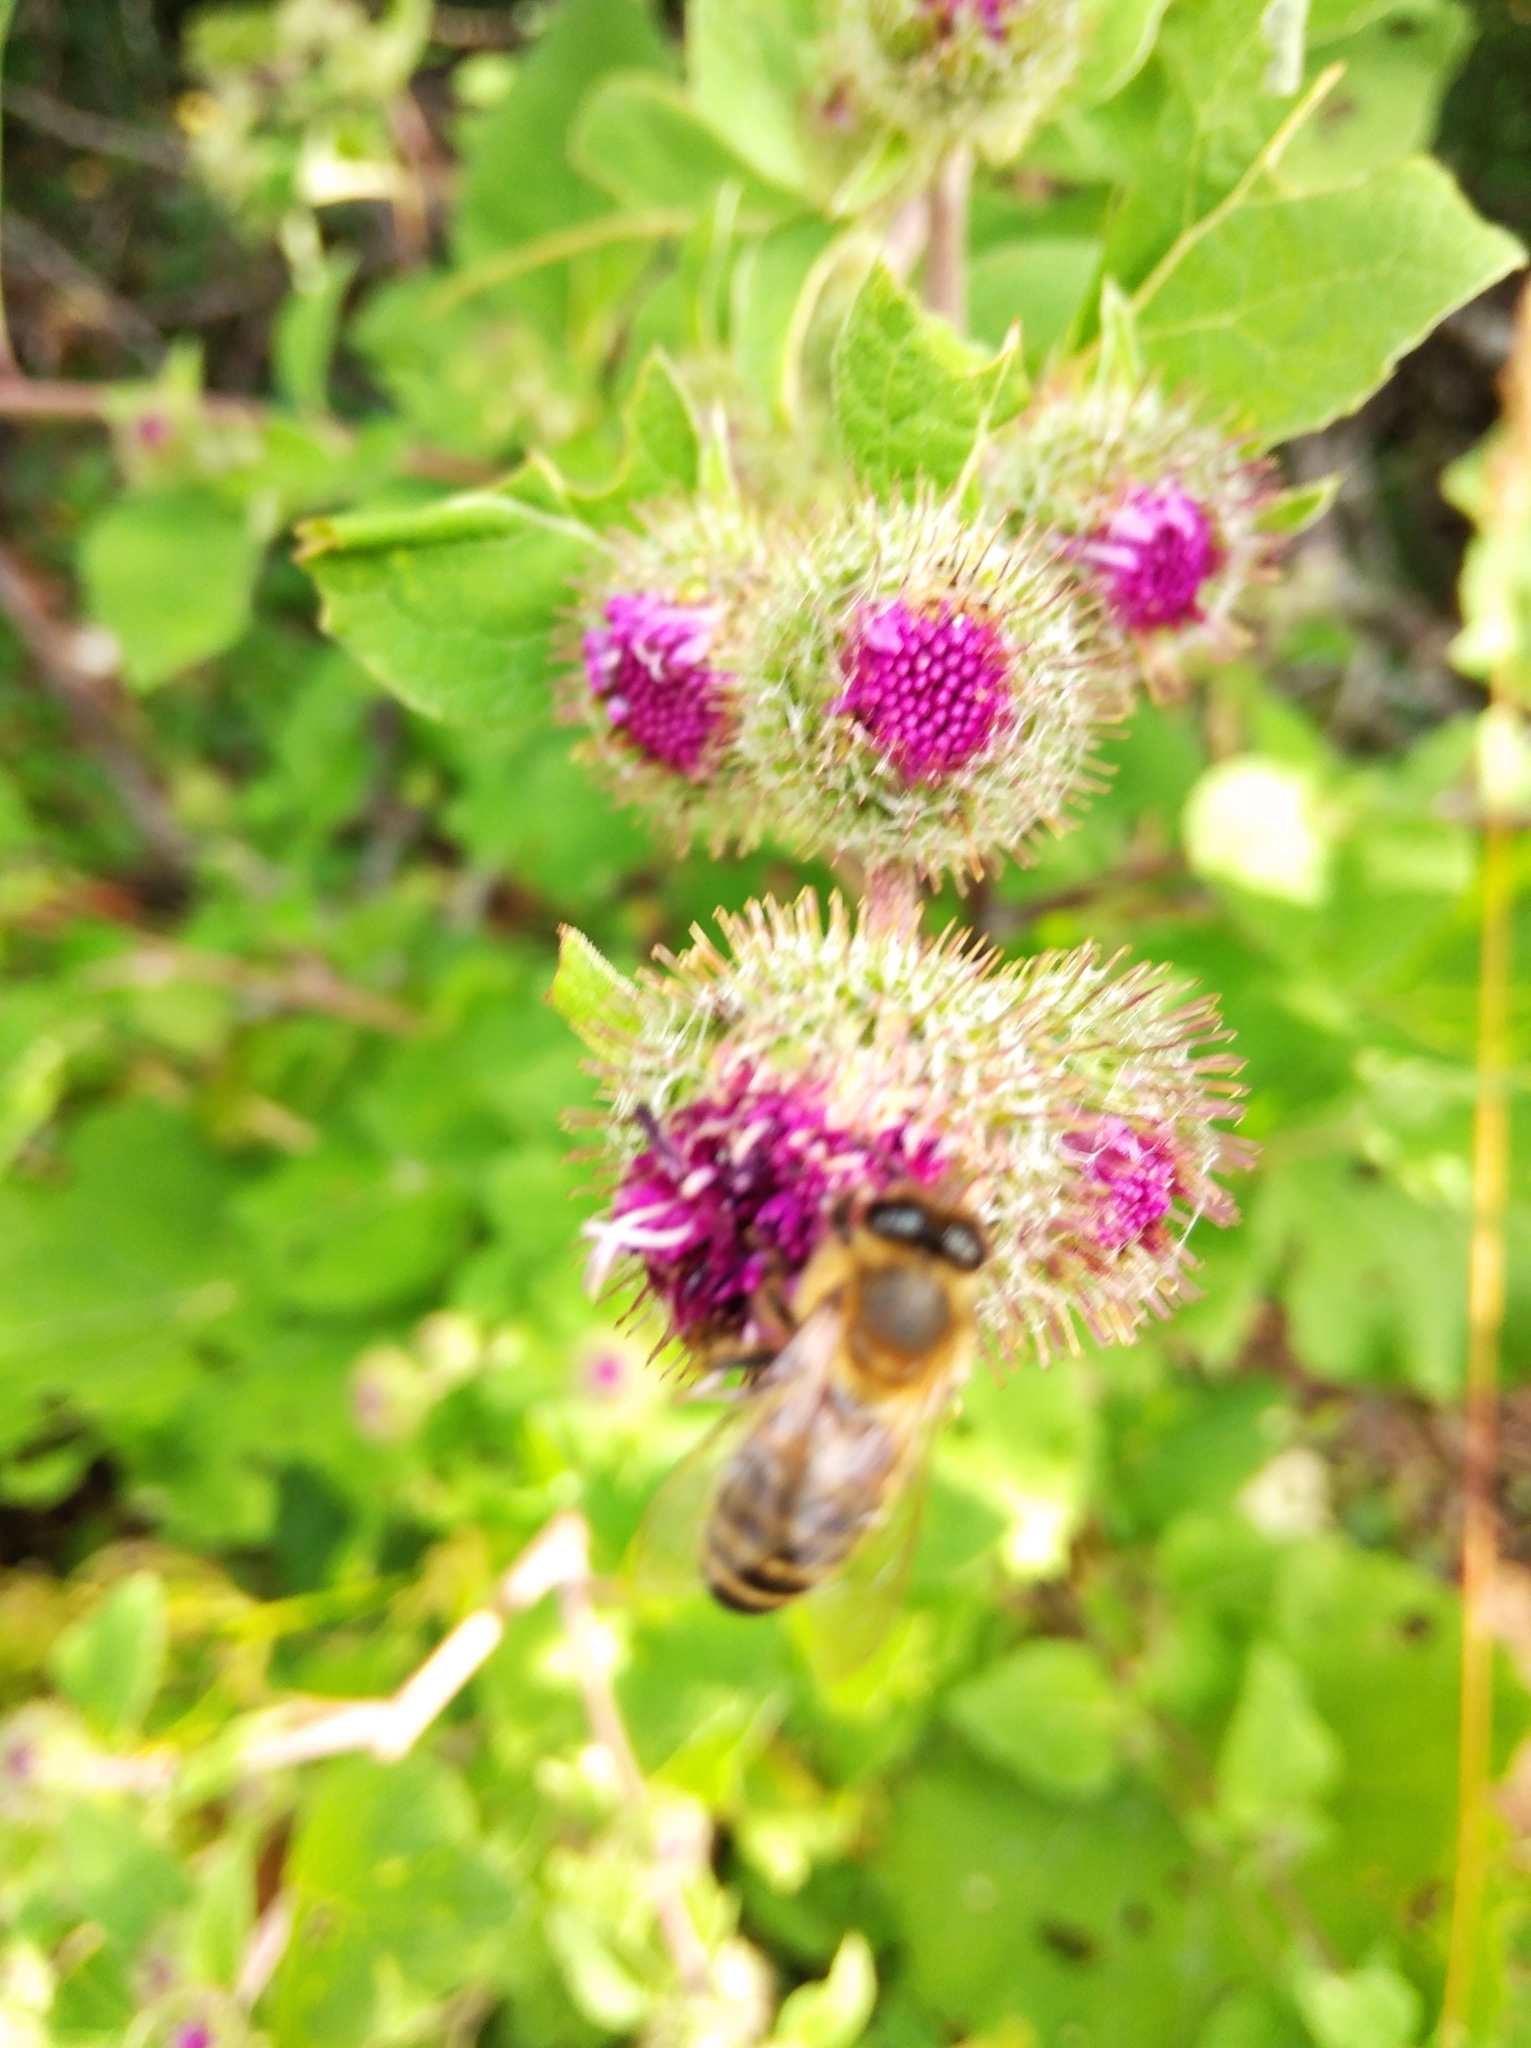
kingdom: Animalia
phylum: Arthropoda
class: Insecta
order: Hymenoptera
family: Apidae
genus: Apis
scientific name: Apis mellifera
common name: Honey bee
